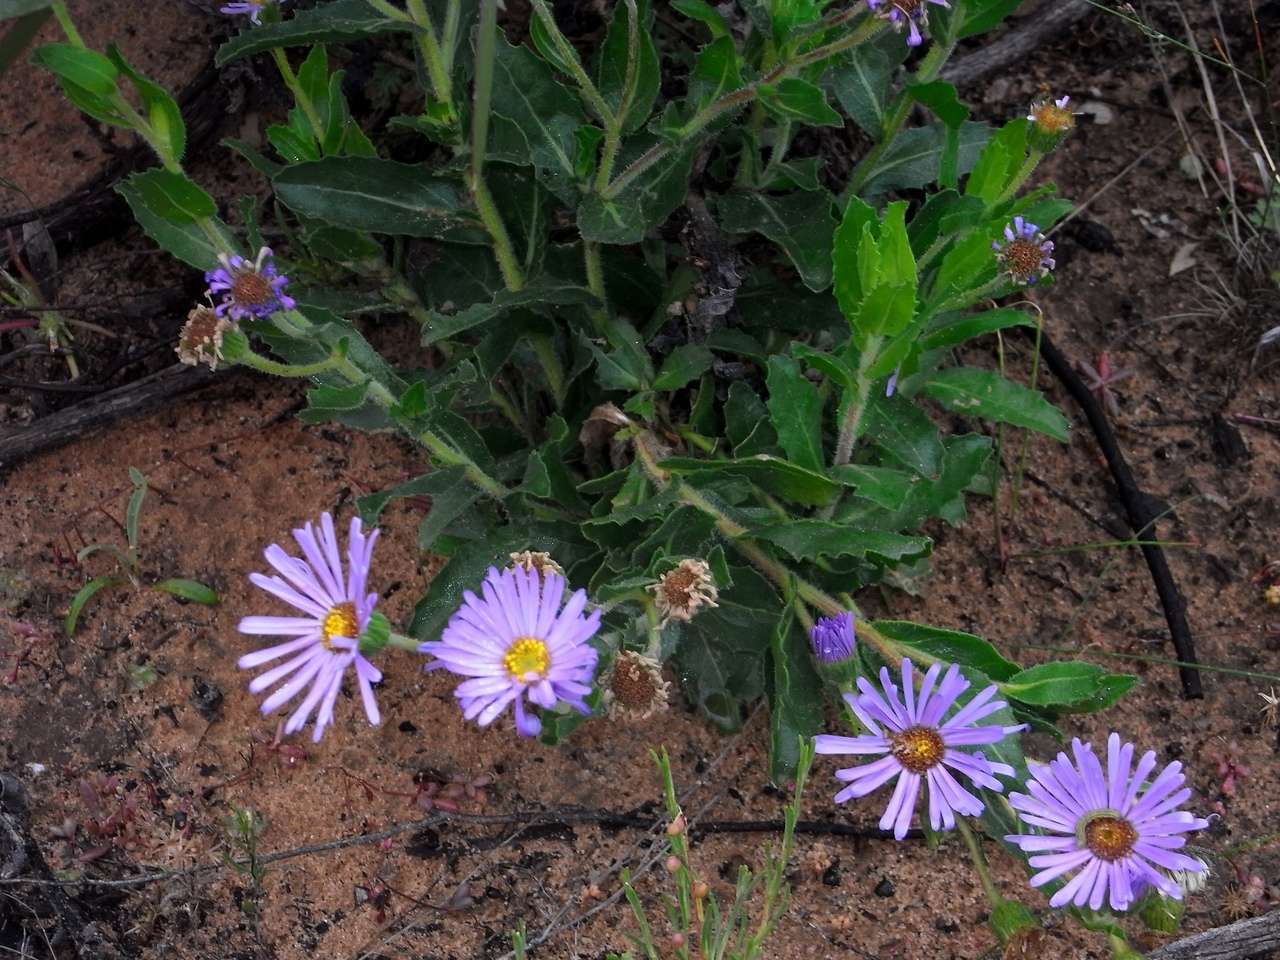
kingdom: Plantae
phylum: Tracheophyta
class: Magnoliopsida
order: Asterales
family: Asteraceae
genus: Muellerolaria
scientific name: Muellerolaria rudis
